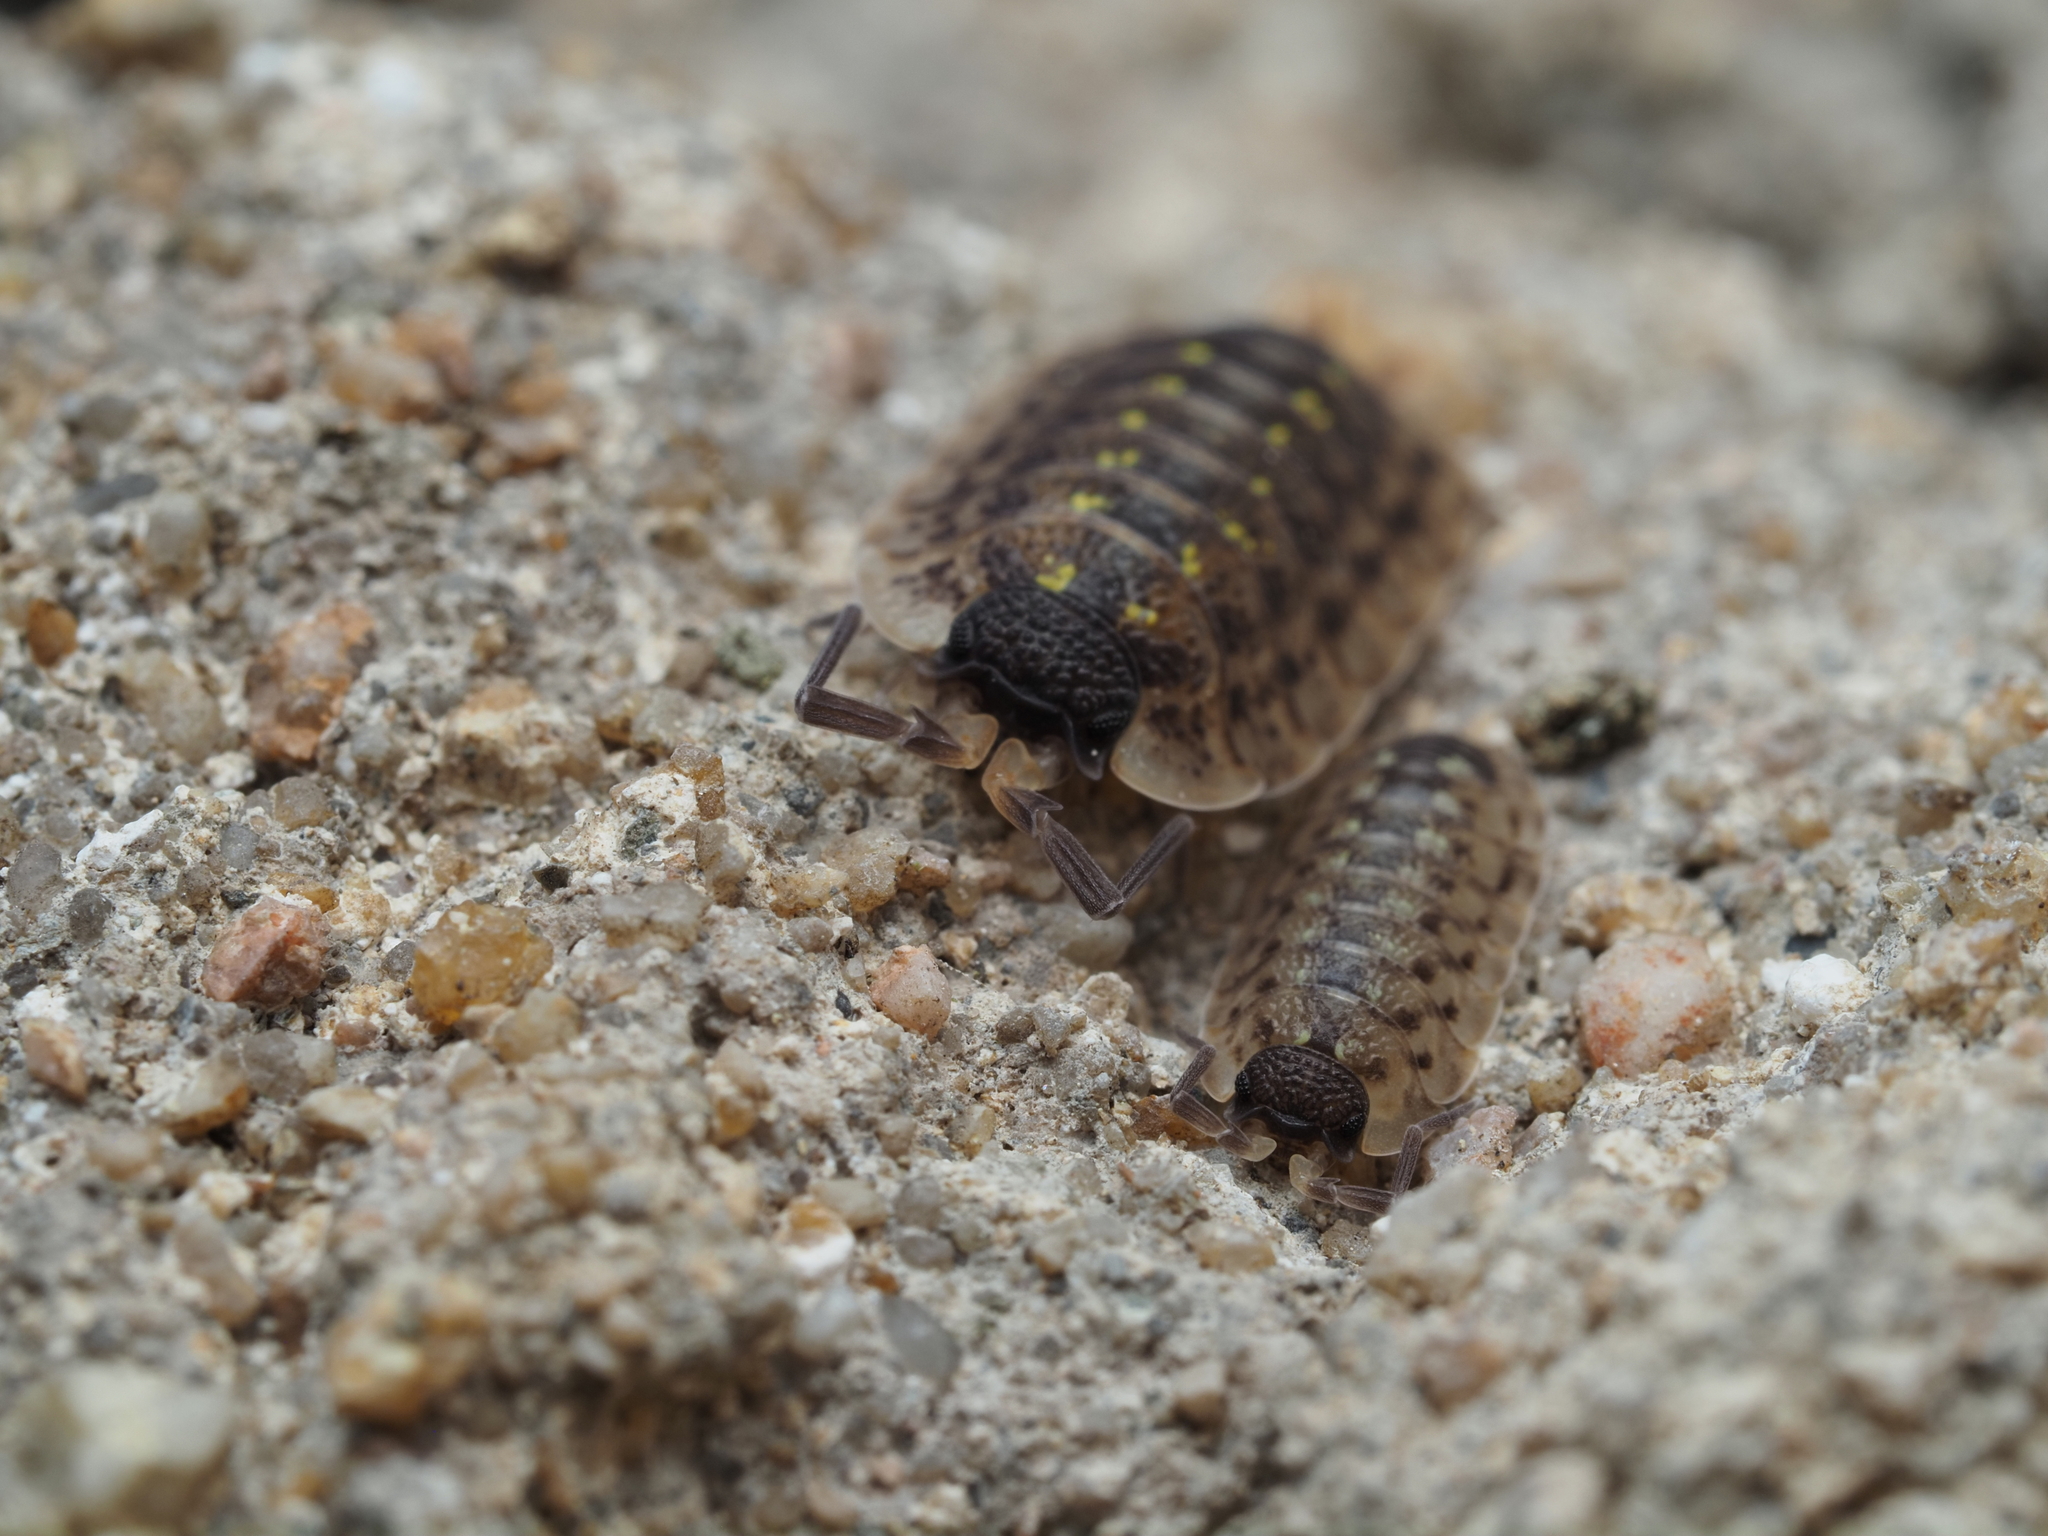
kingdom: Animalia
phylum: Arthropoda
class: Malacostraca
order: Isopoda
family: Porcellionidae
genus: Porcellio
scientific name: Porcellio spinicornis
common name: Painted woodlouse
